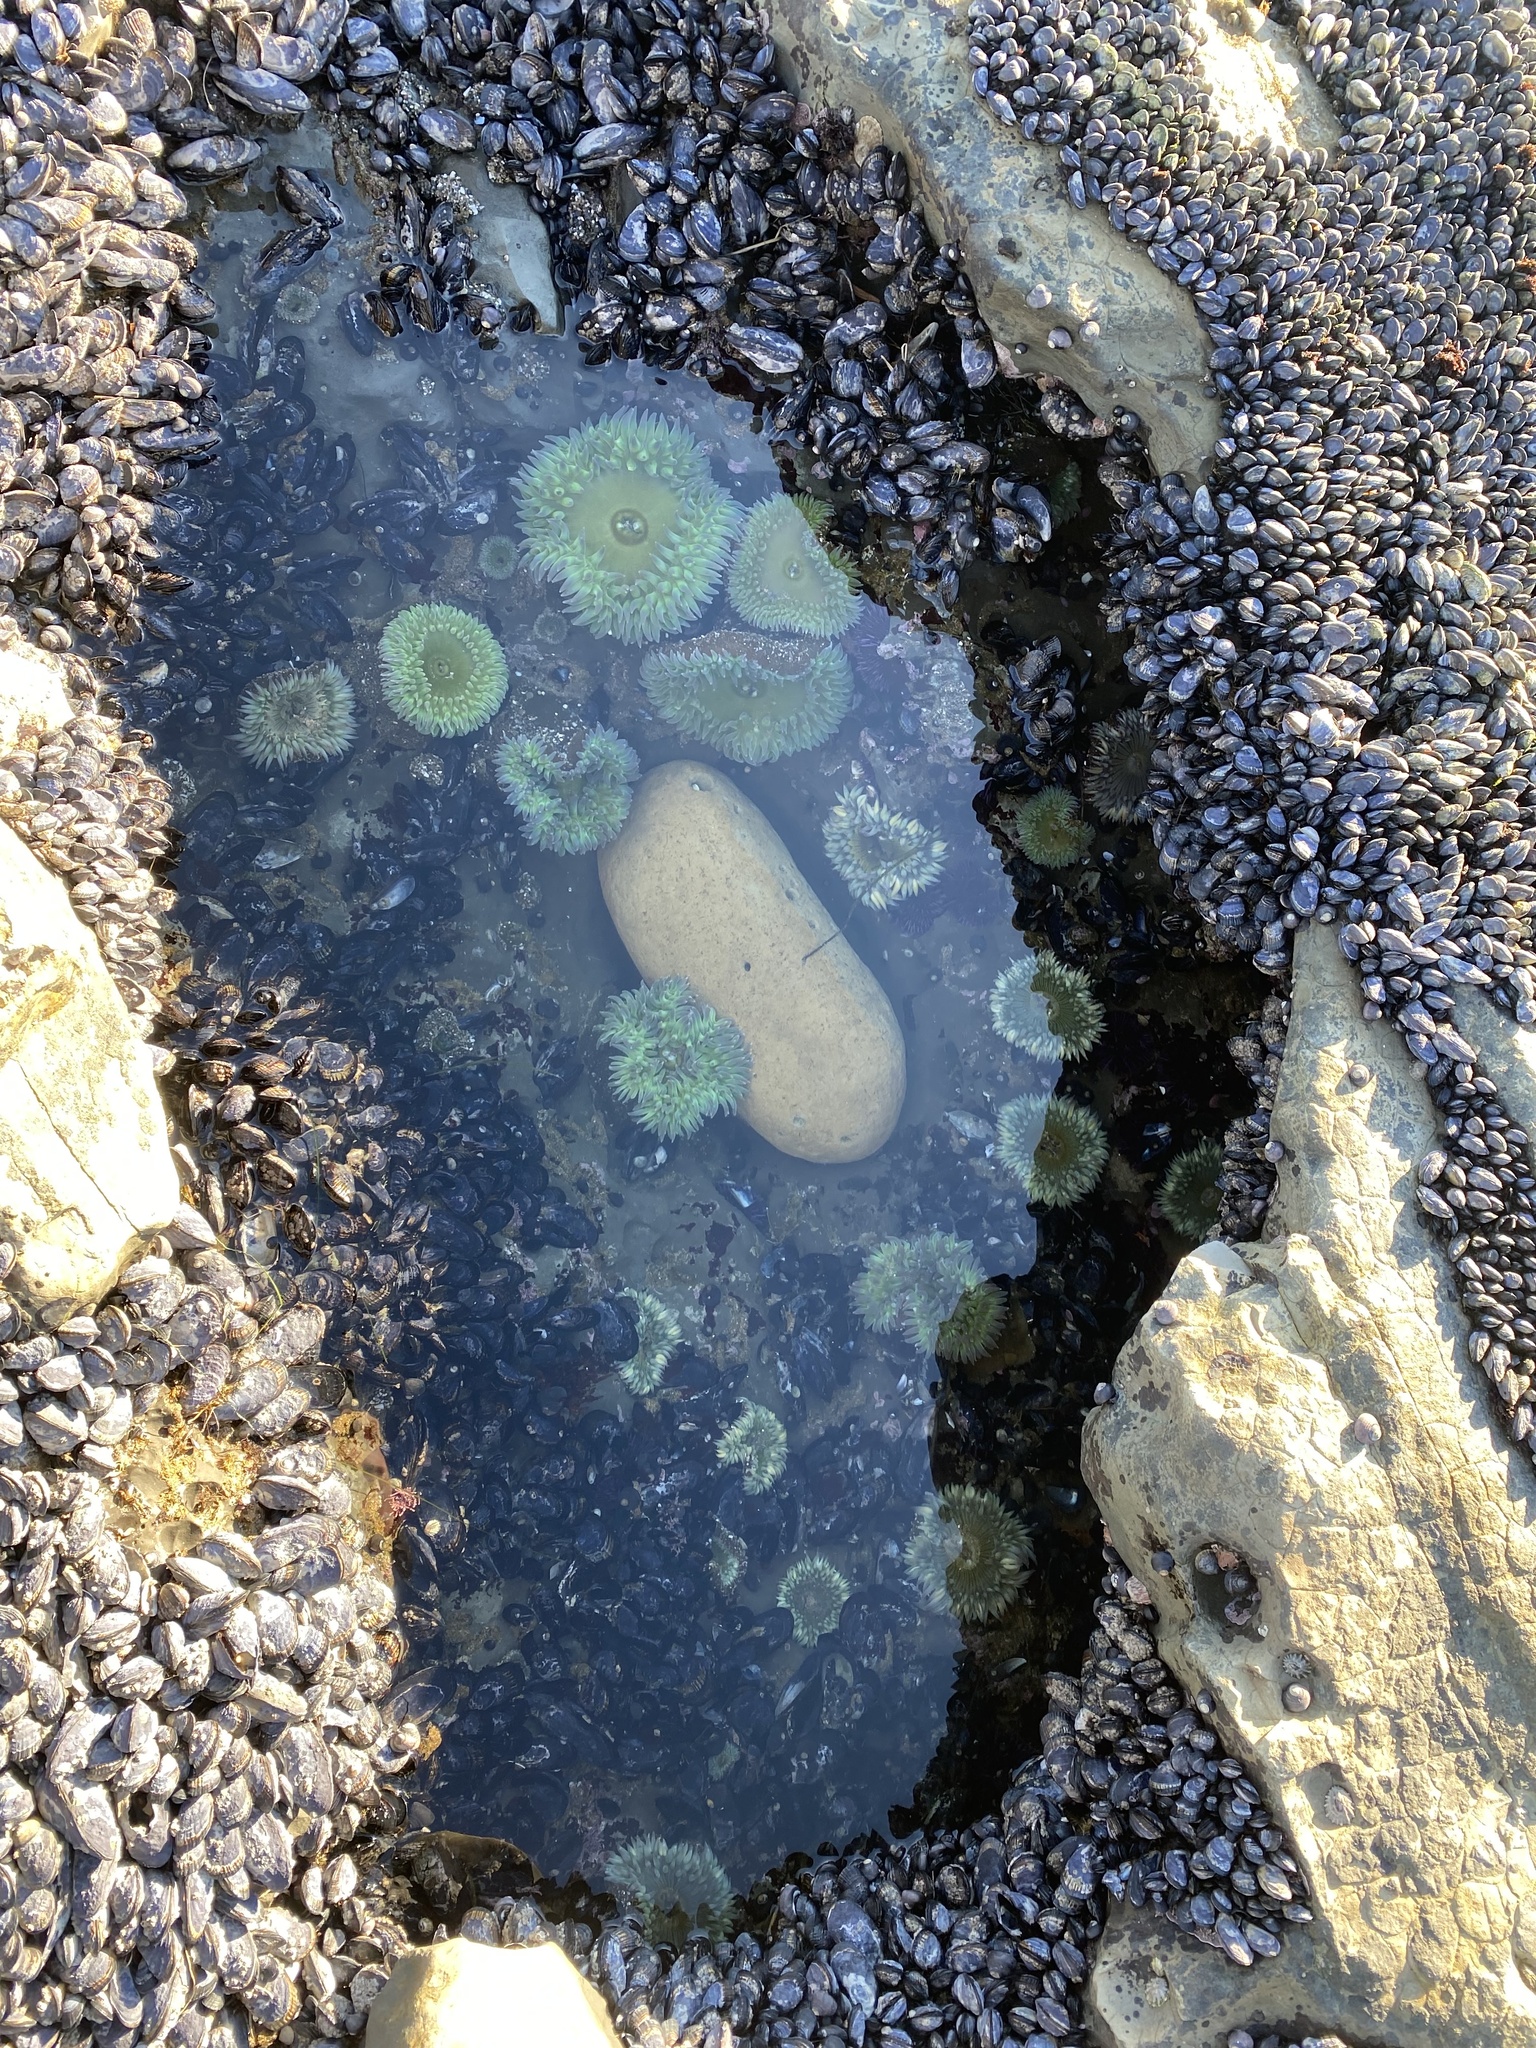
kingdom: Animalia
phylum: Cnidaria
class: Anthozoa
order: Actiniaria
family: Actiniidae
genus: Anthopleura
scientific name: Anthopleura sola
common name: Sun anemone
